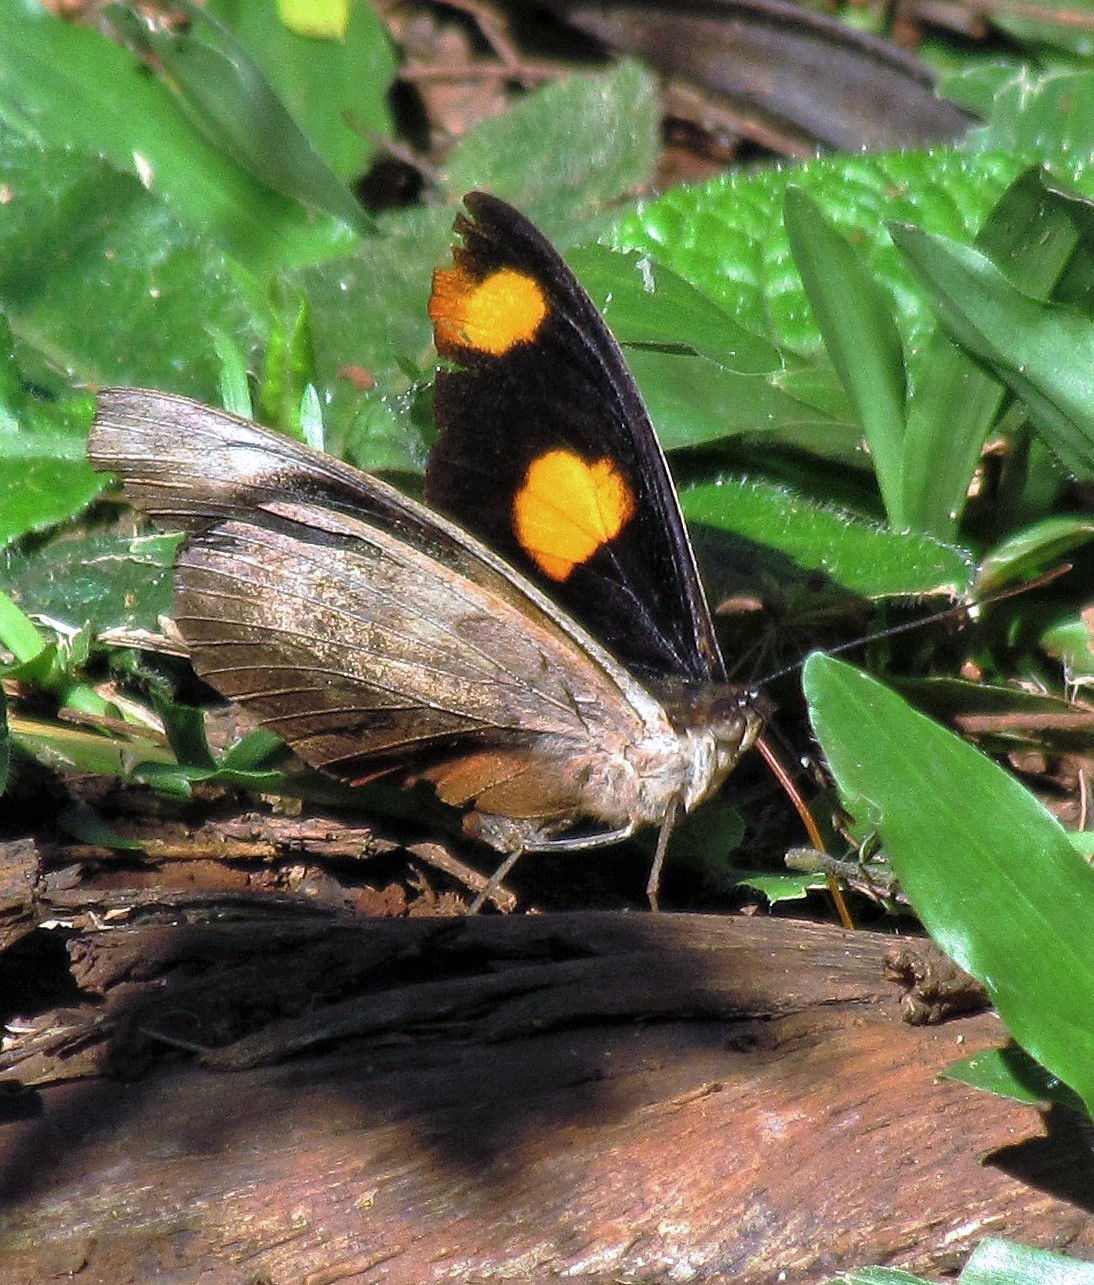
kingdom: Animalia
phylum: Arthropoda
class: Insecta
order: Lepidoptera
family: Nymphalidae
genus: Catonephele
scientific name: Catonephele numilia
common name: Blue-frosted banner
